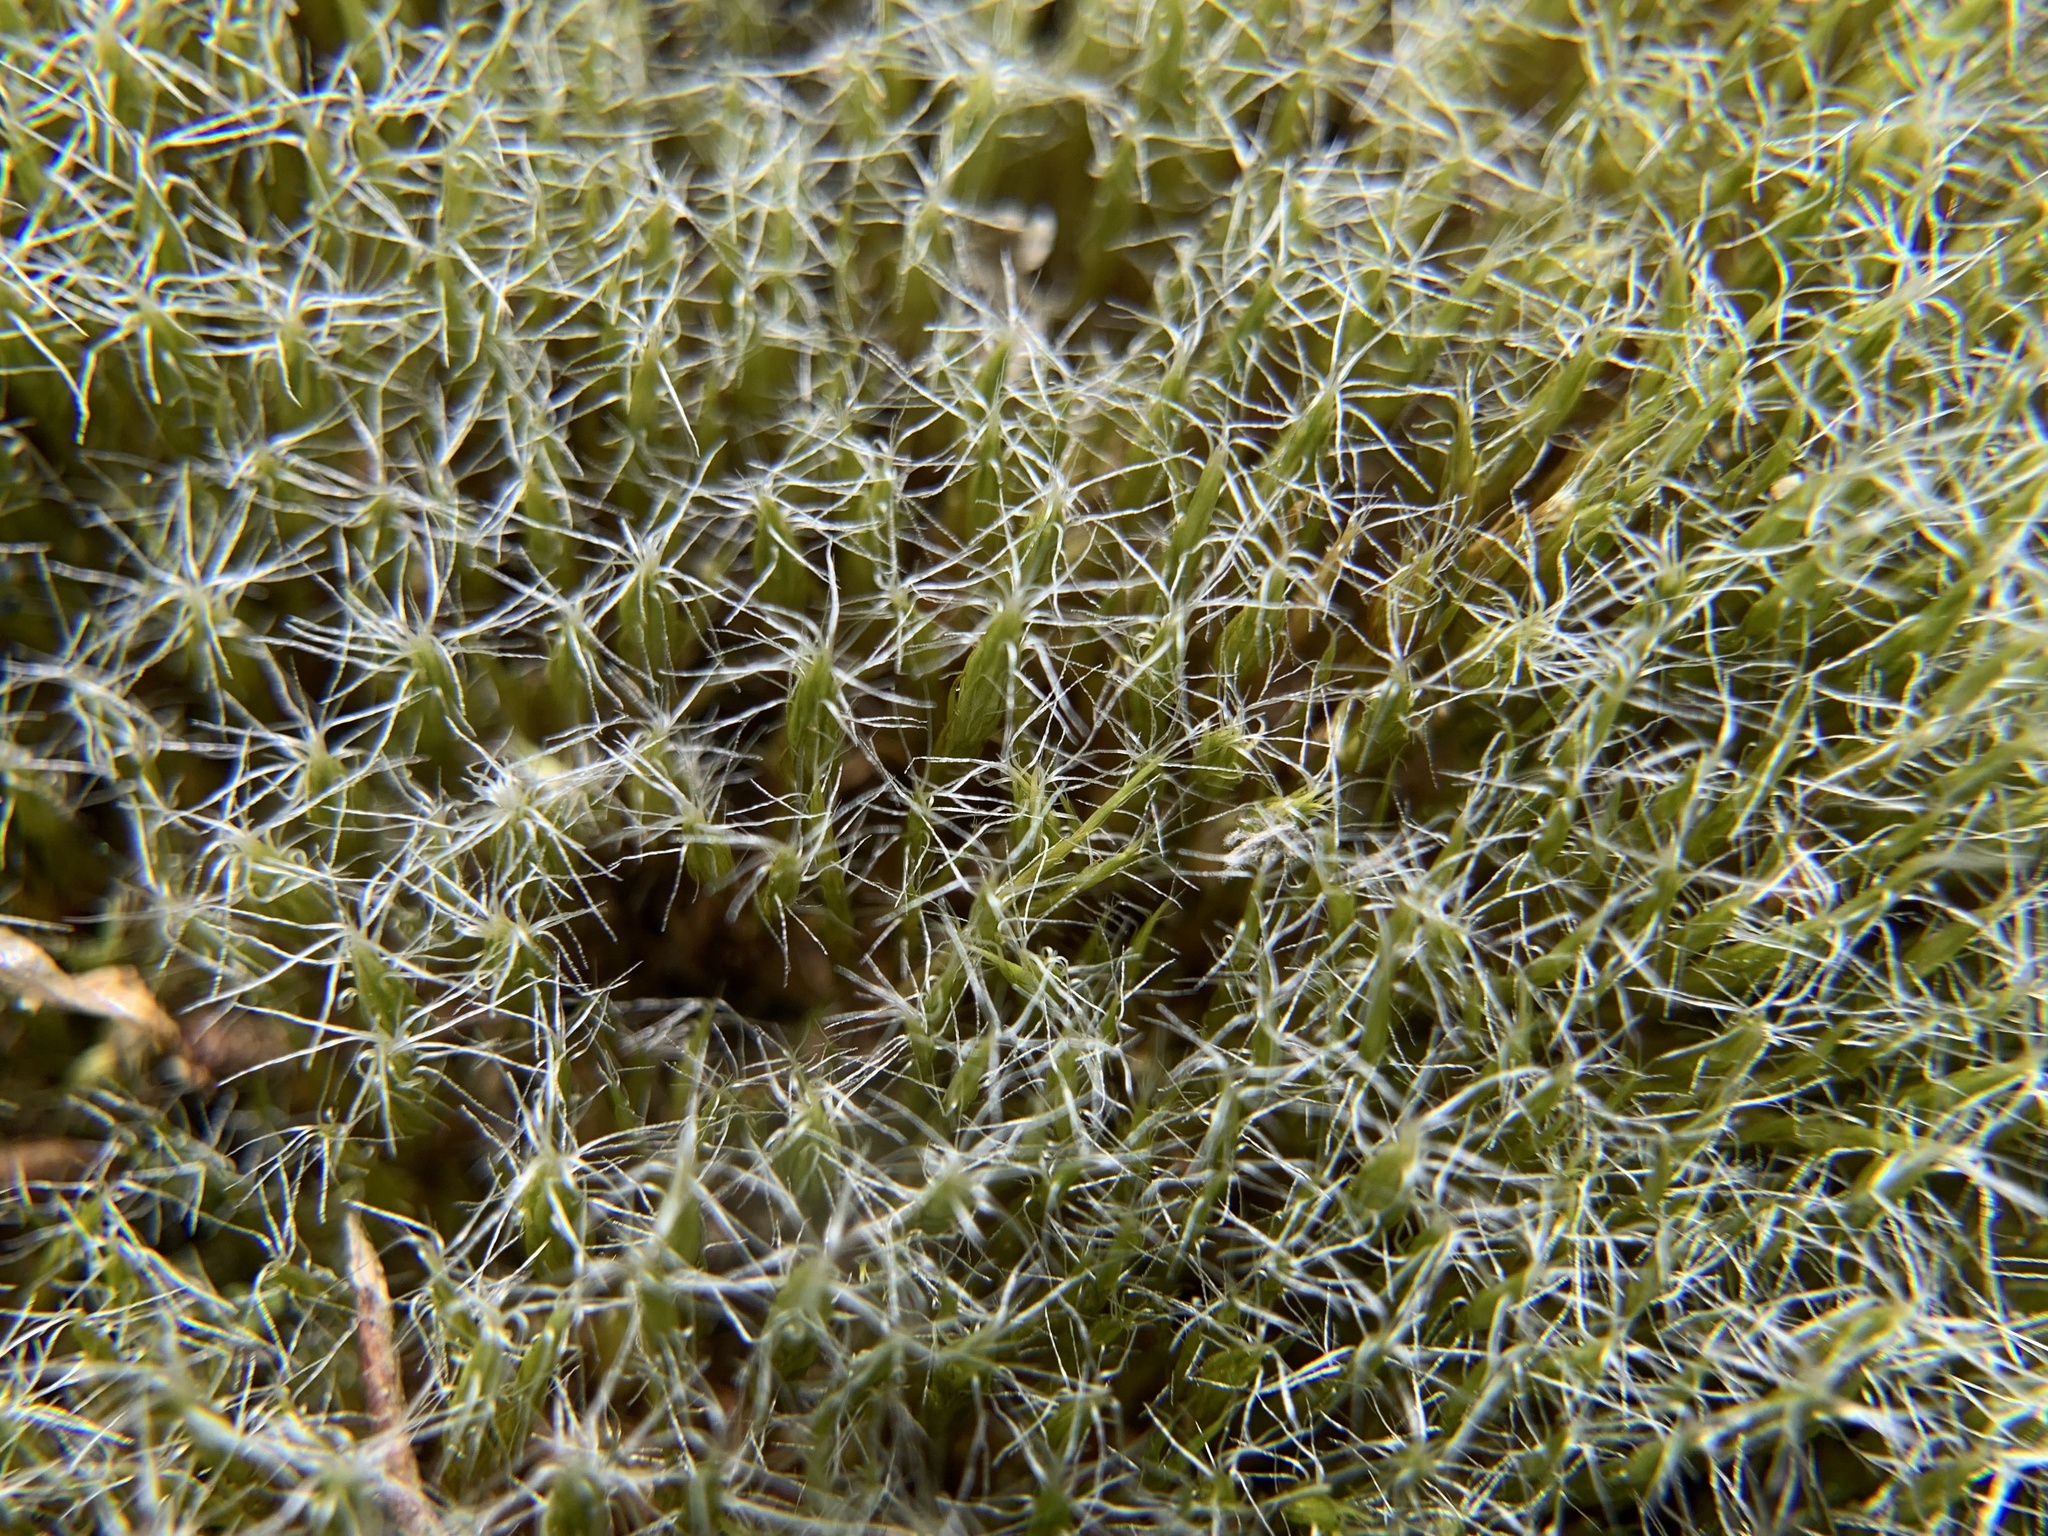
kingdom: Plantae
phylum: Bryophyta
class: Bryopsida
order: Dicranales
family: Leucobryaceae
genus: Campylopus
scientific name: Campylopus introflexus
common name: Heath star moss
